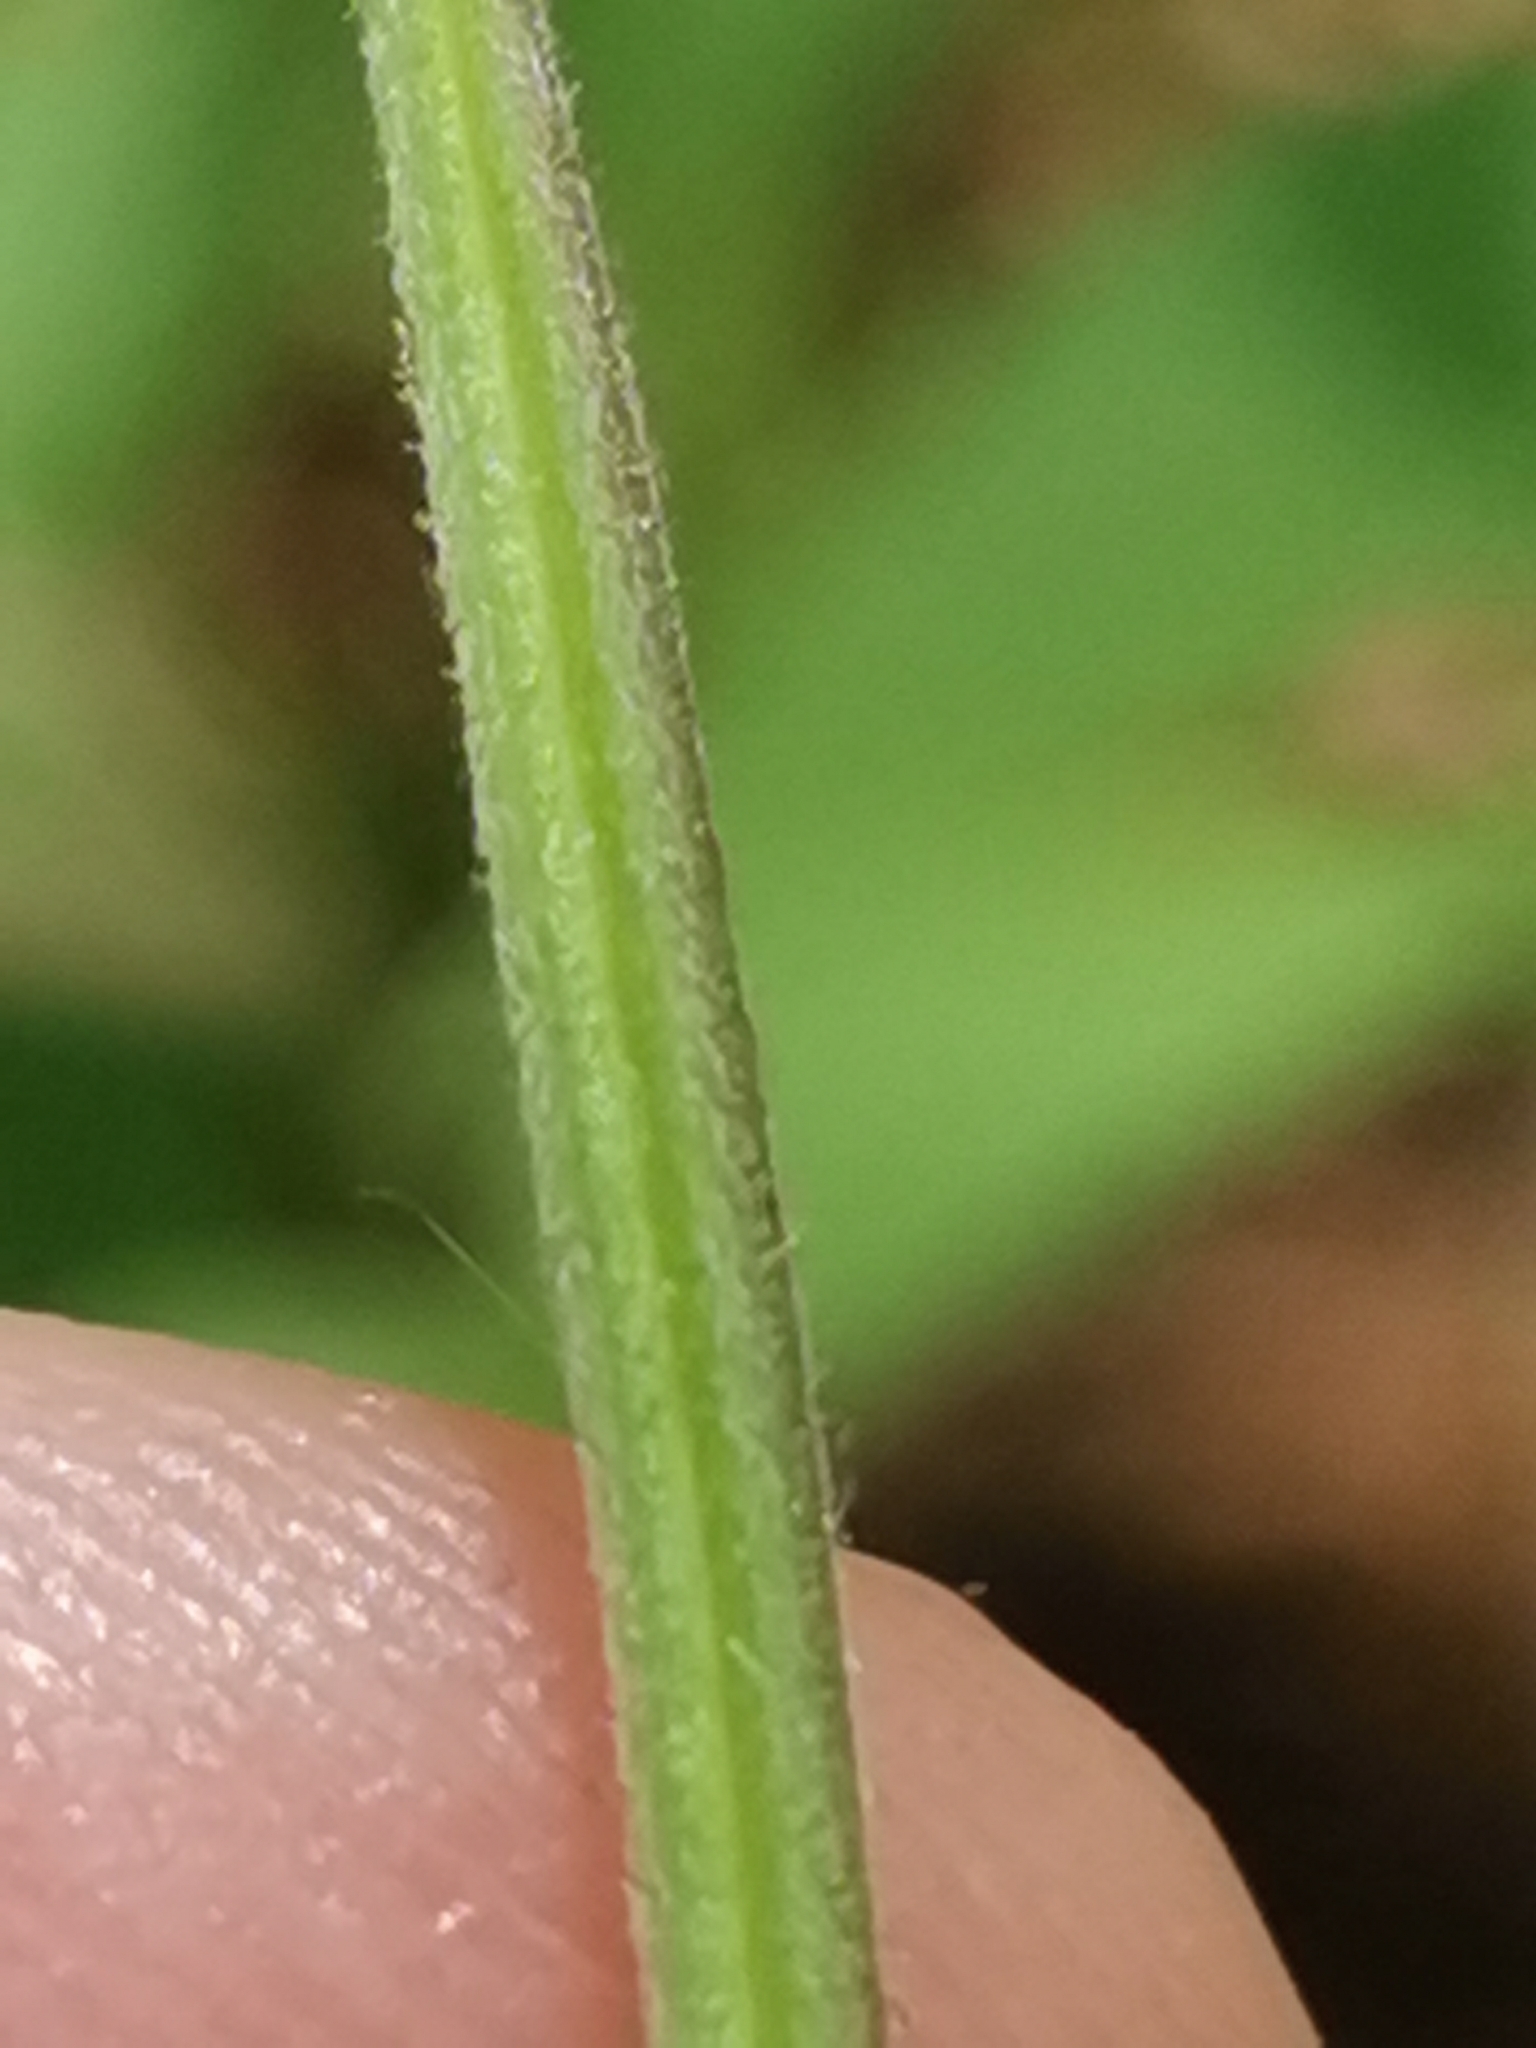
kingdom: Plantae
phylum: Tracheophyta
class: Magnoliopsida
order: Myrtales
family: Onagraceae
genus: Epilobium
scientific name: Epilobium montanum
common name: Broad-leaved willowherb
